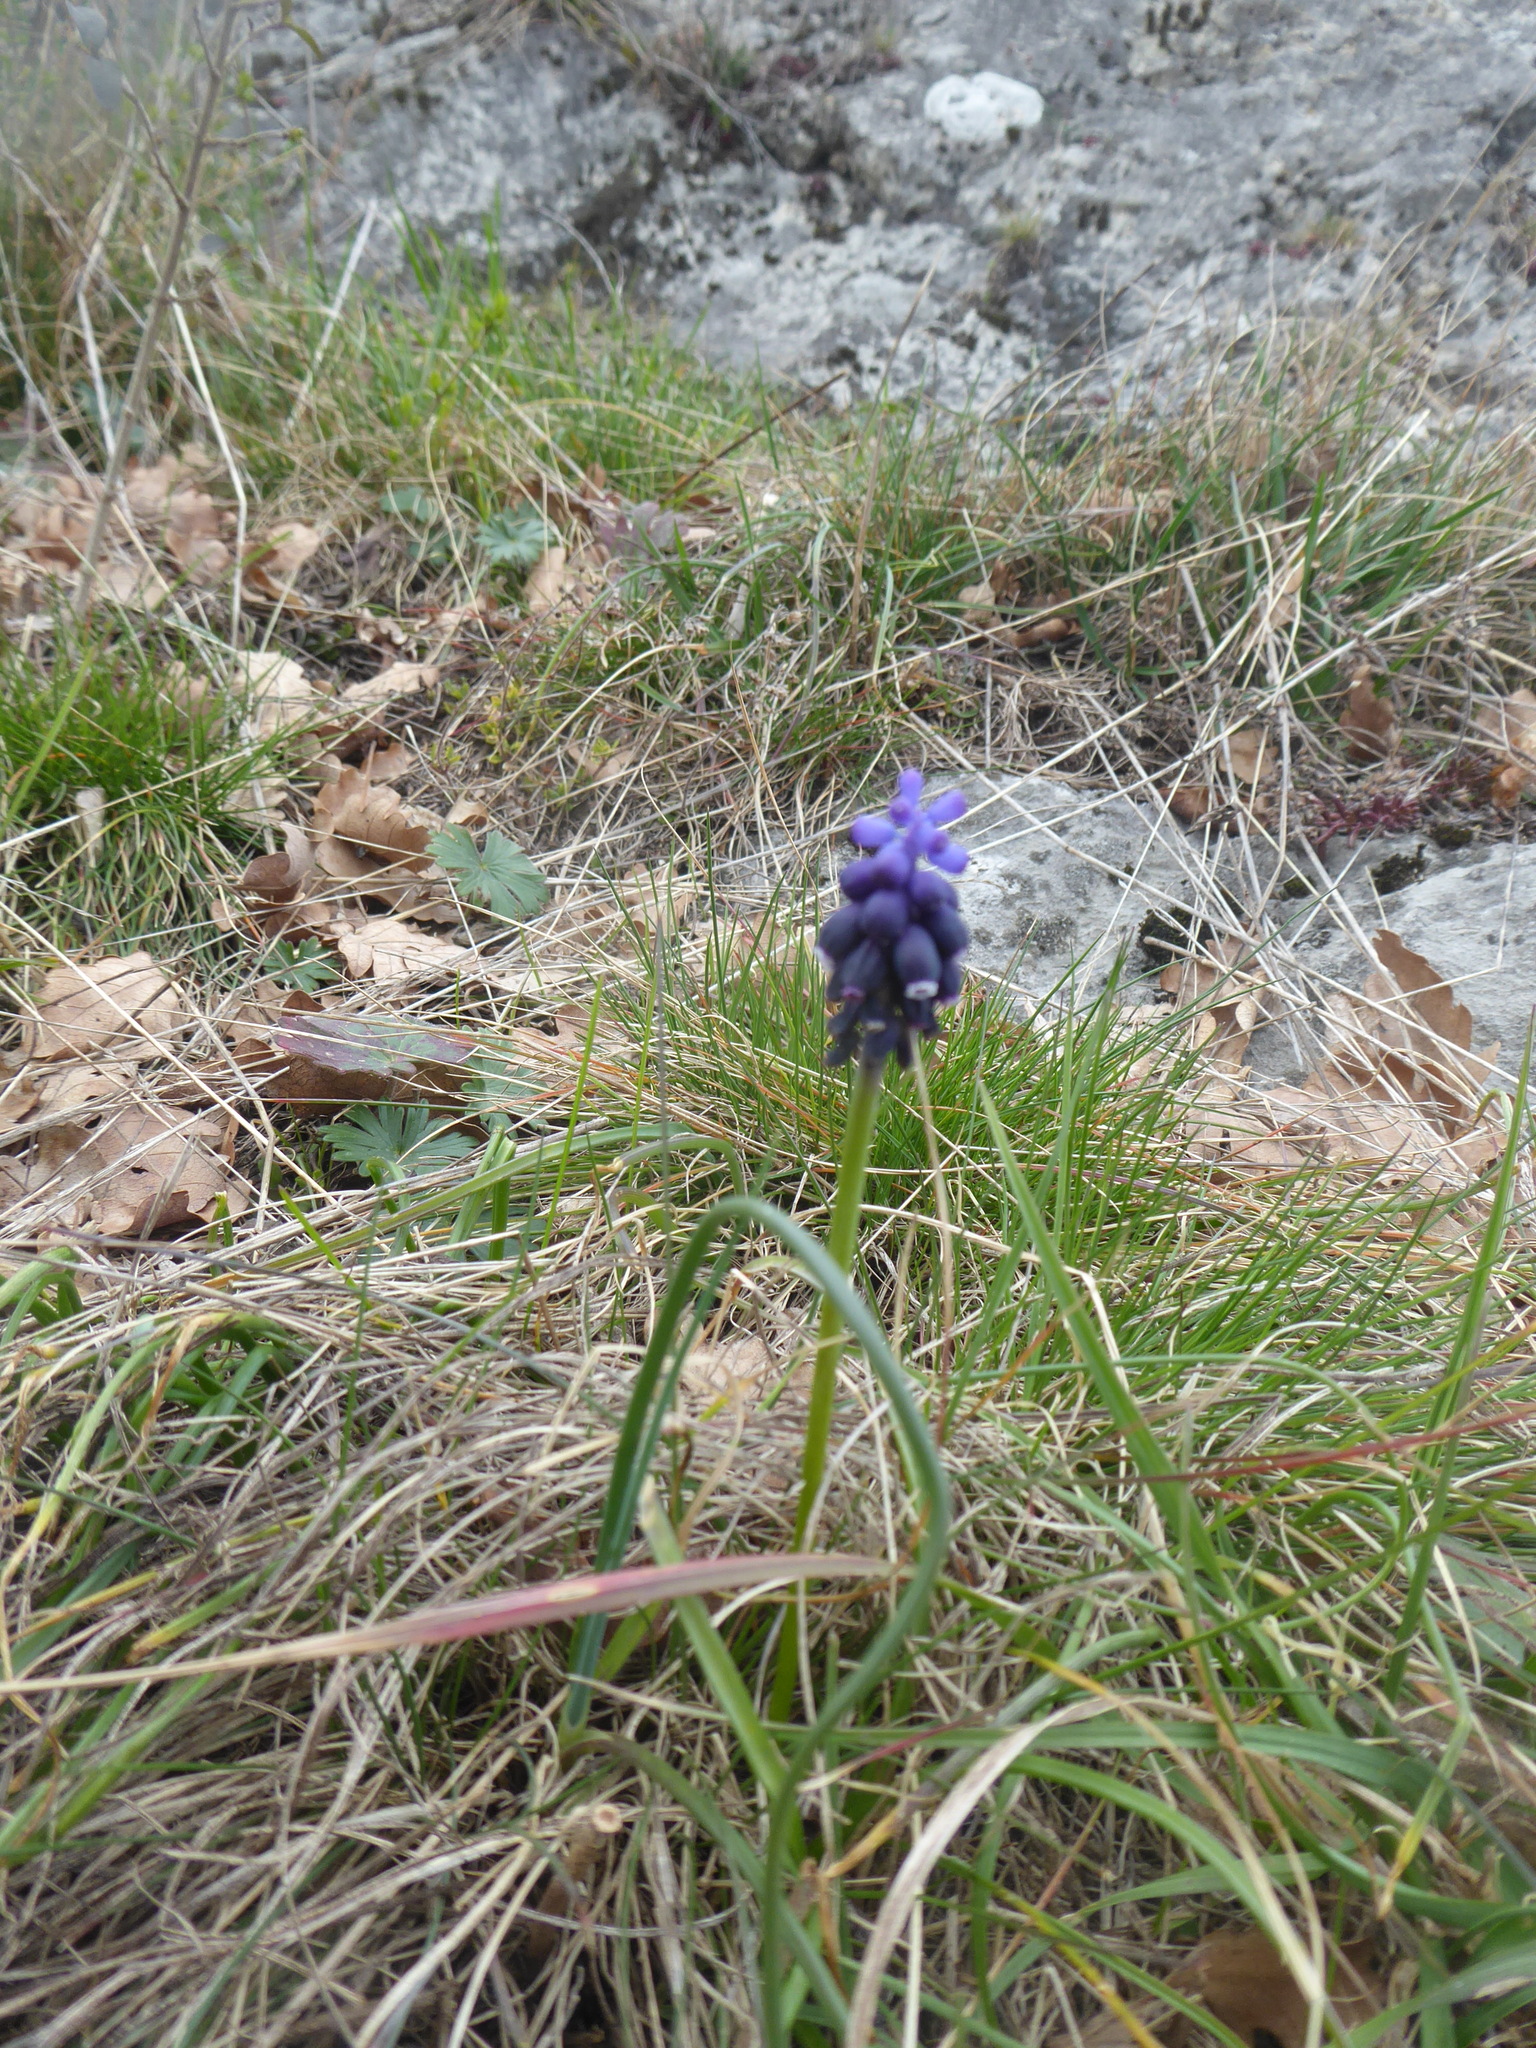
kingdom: Plantae
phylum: Tracheophyta
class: Liliopsida
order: Asparagales
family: Asparagaceae
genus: Muscari
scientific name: Muscari neglectum
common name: Grape-hyacinth
